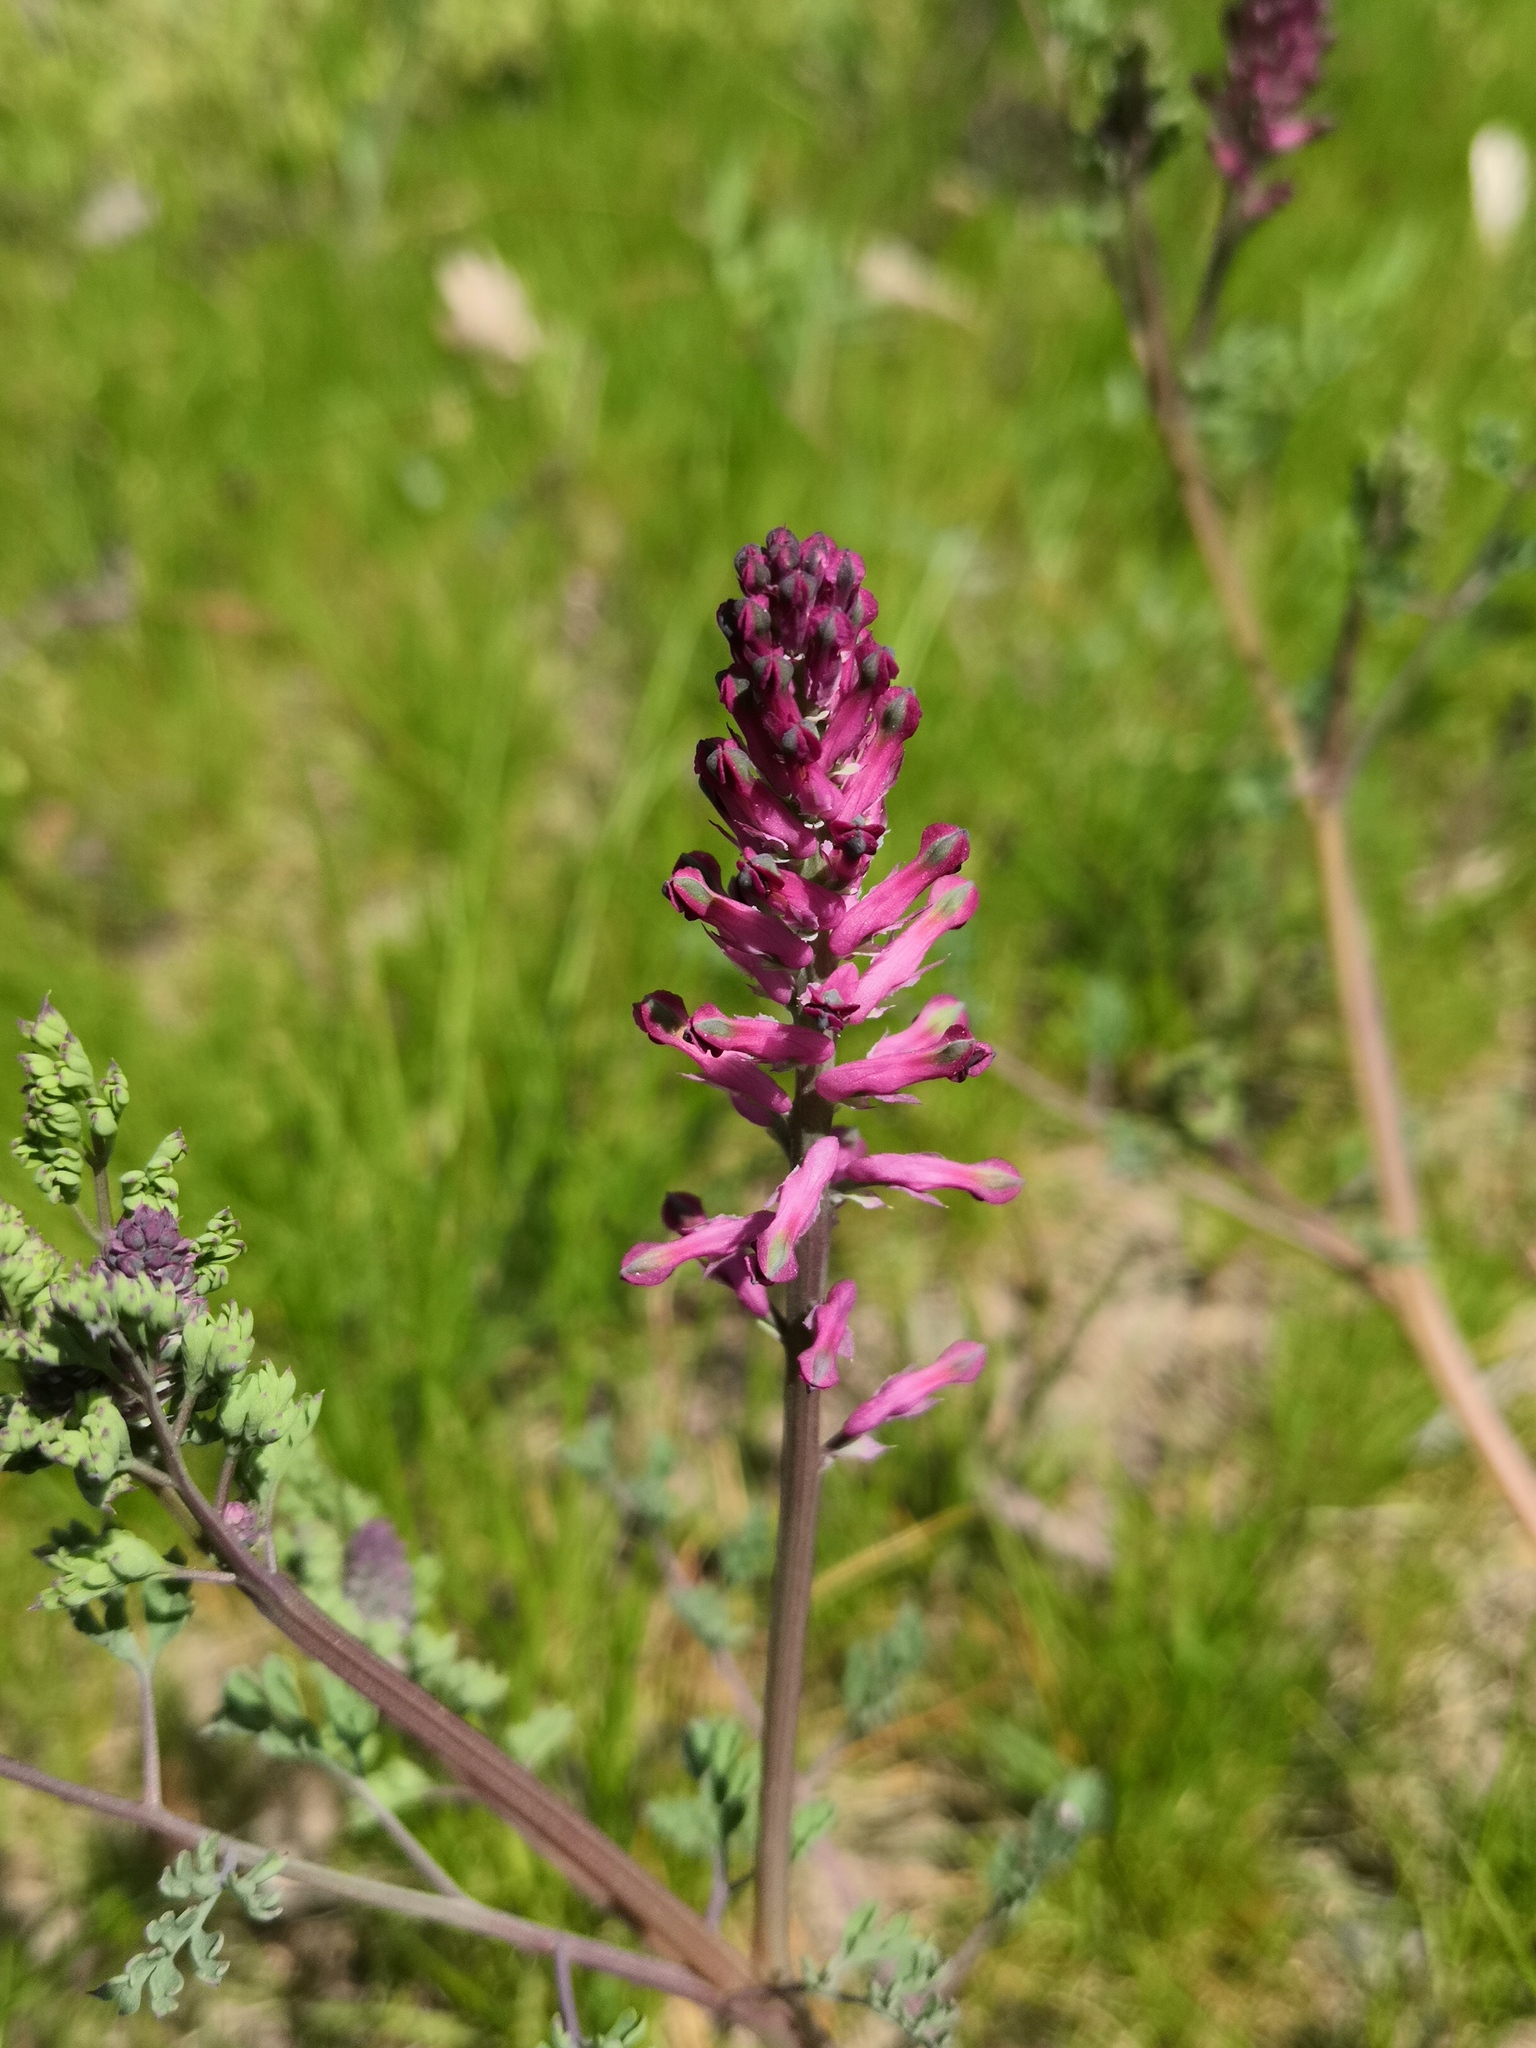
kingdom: Plantae
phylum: Tracheophyta
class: Magnoliopsida
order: Ranunculales
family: Papaveraceae
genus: Fumaria
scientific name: Fumaria officinalis
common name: Common fumitory
